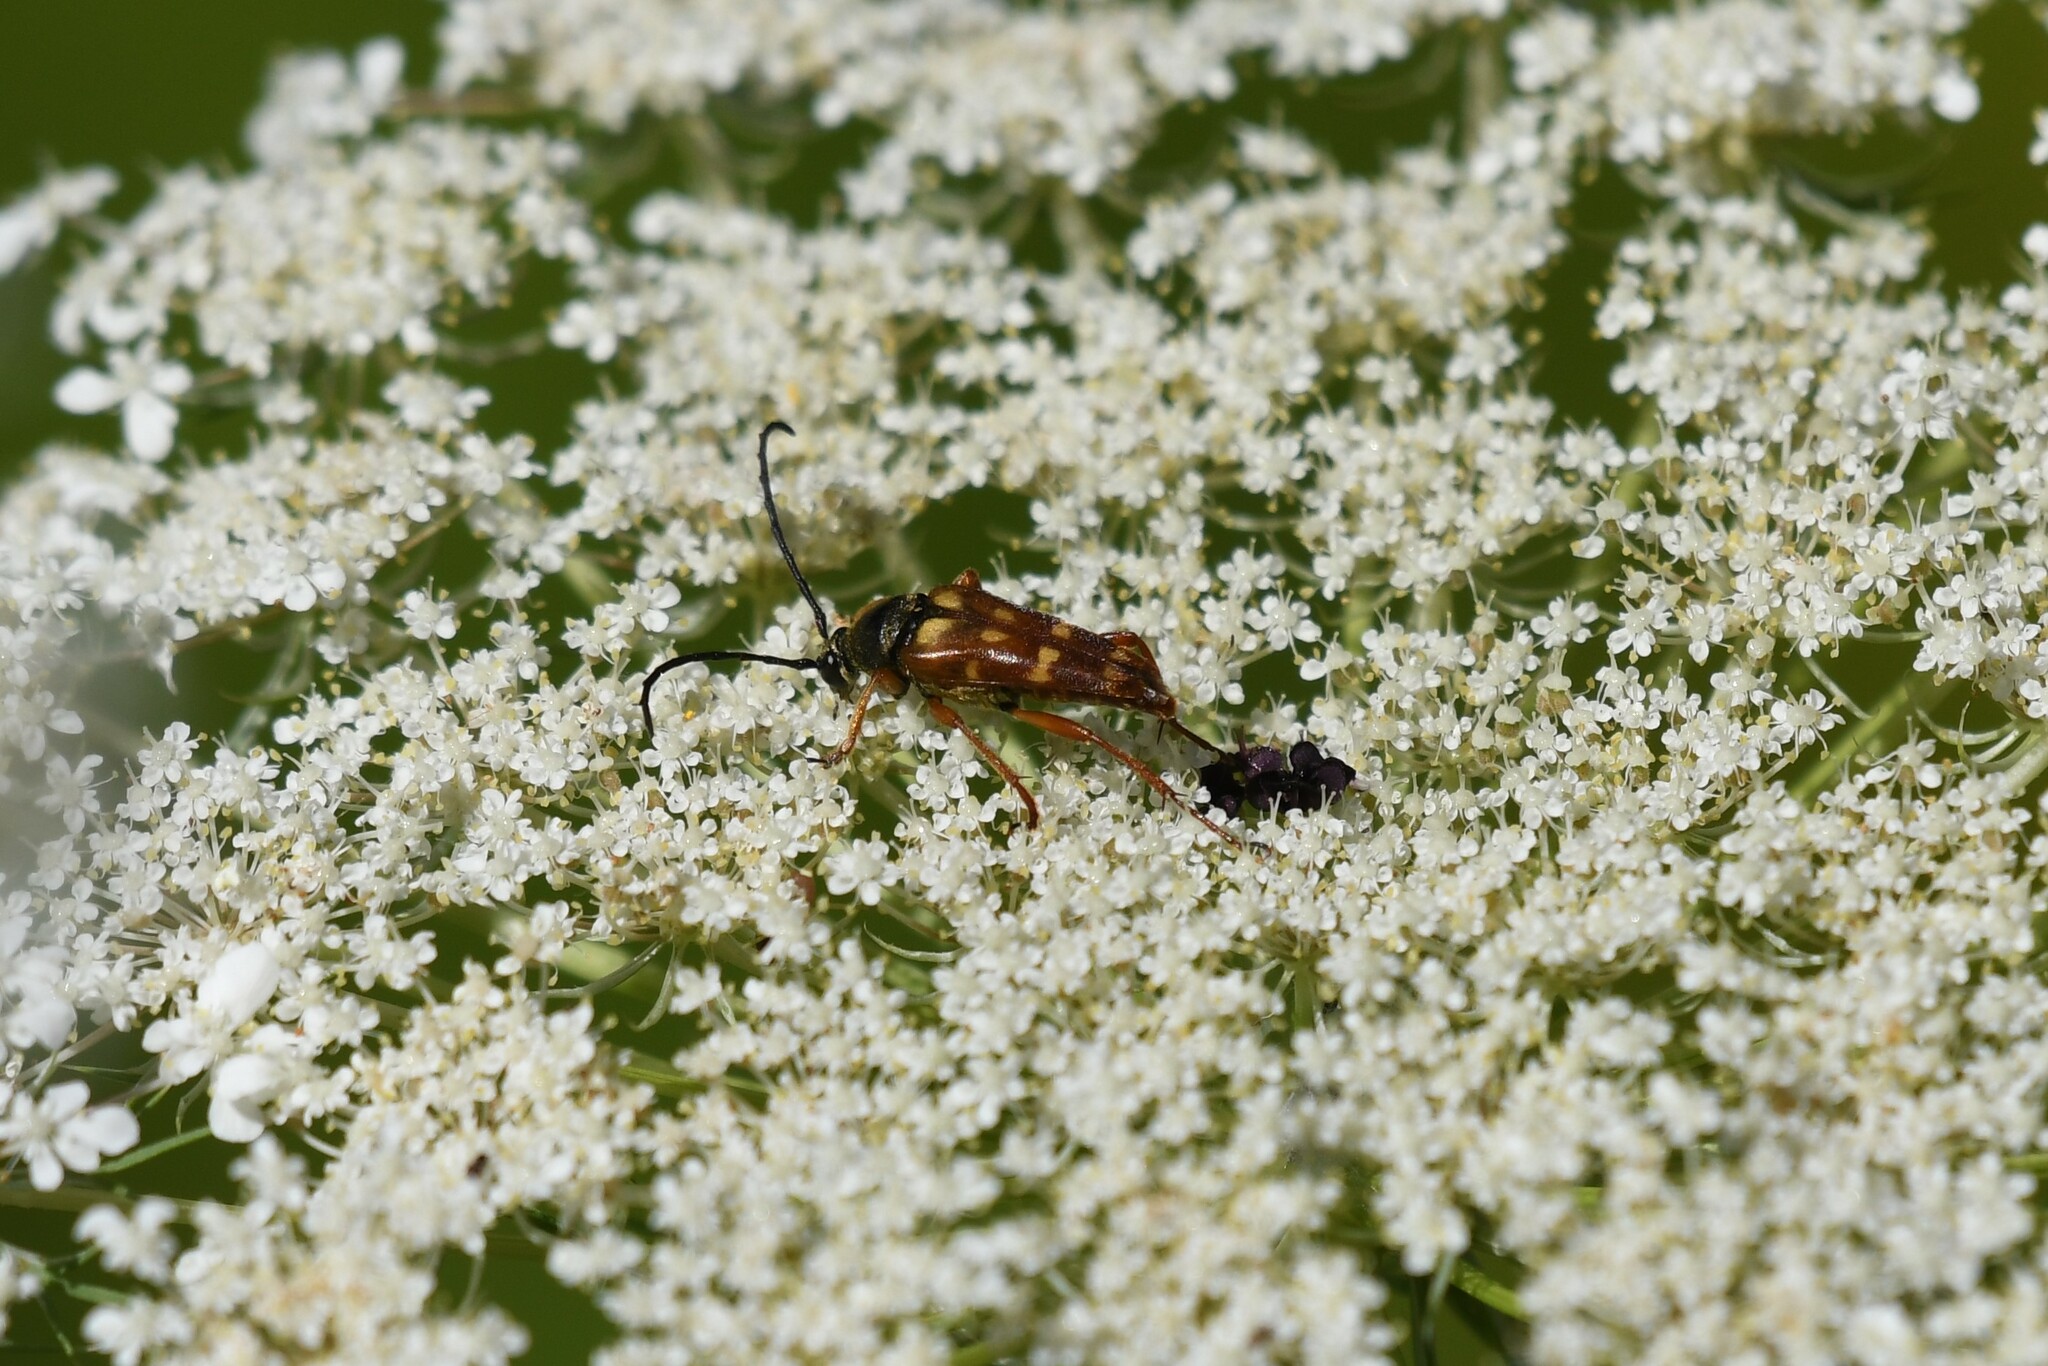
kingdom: Animalia
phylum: Arthropoda
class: Insecta
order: Coleoptera
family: Cerambycidae
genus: Typocerus
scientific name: Typocerus velutinus
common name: Banded longhorn beetle
